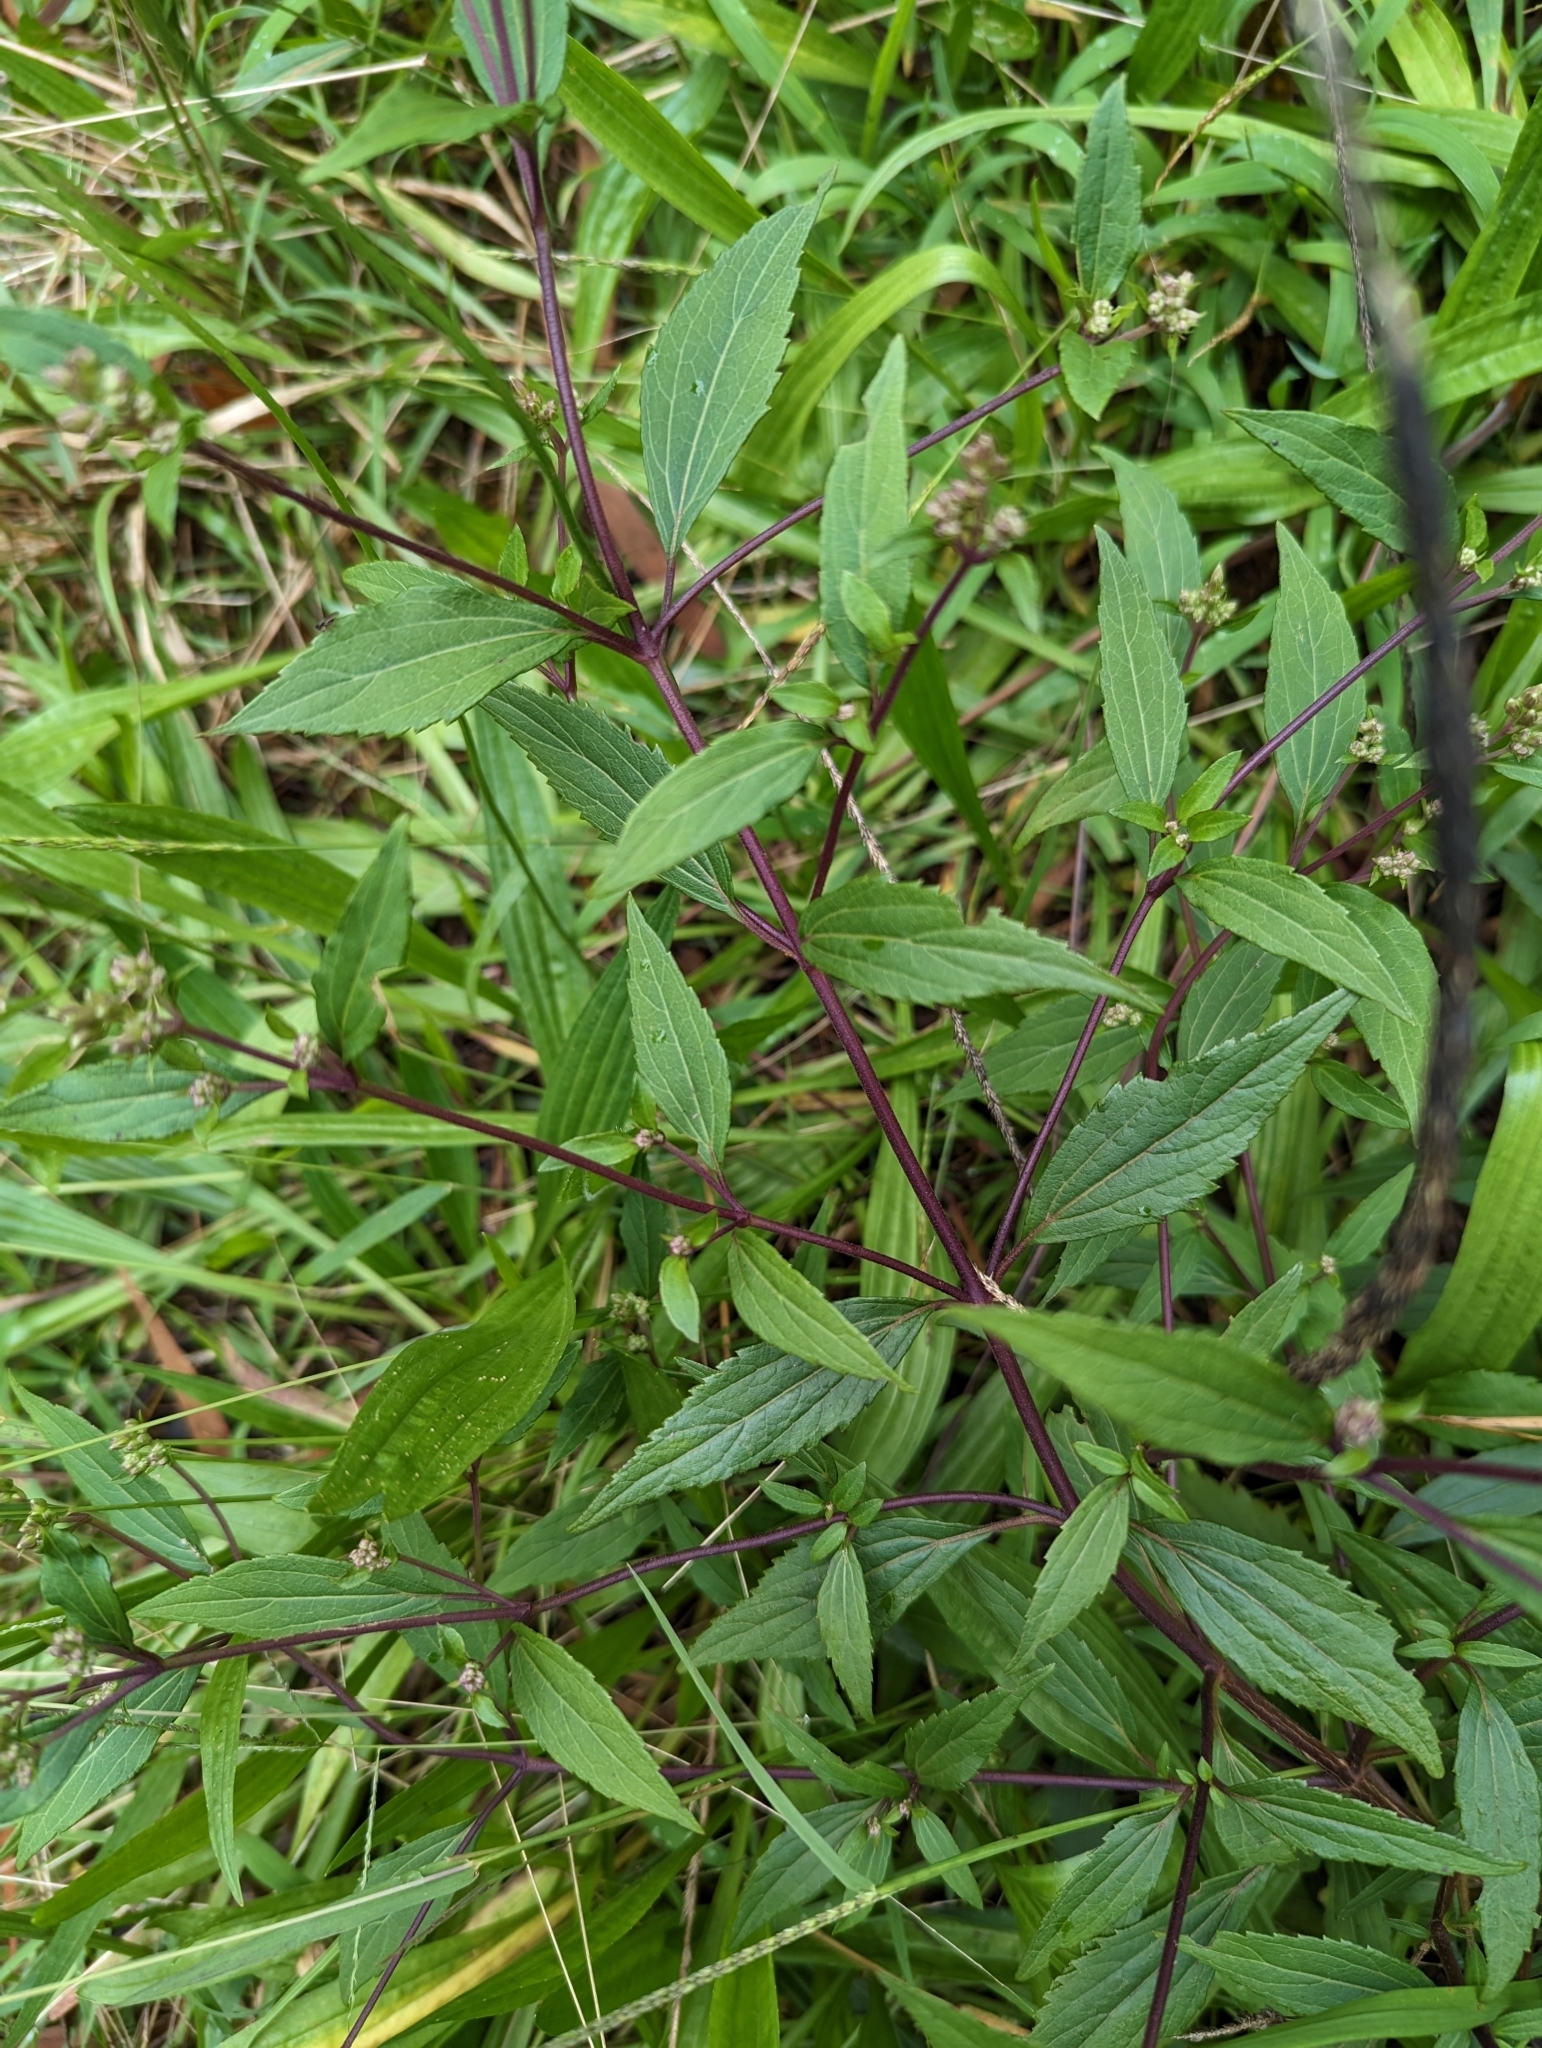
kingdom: Plantae
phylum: Tracheophyta
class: Magnoliopsida
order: Asterales
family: Asteraceae
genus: Ageratina
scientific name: Ageratina riparia
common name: Creeping croftonweed
